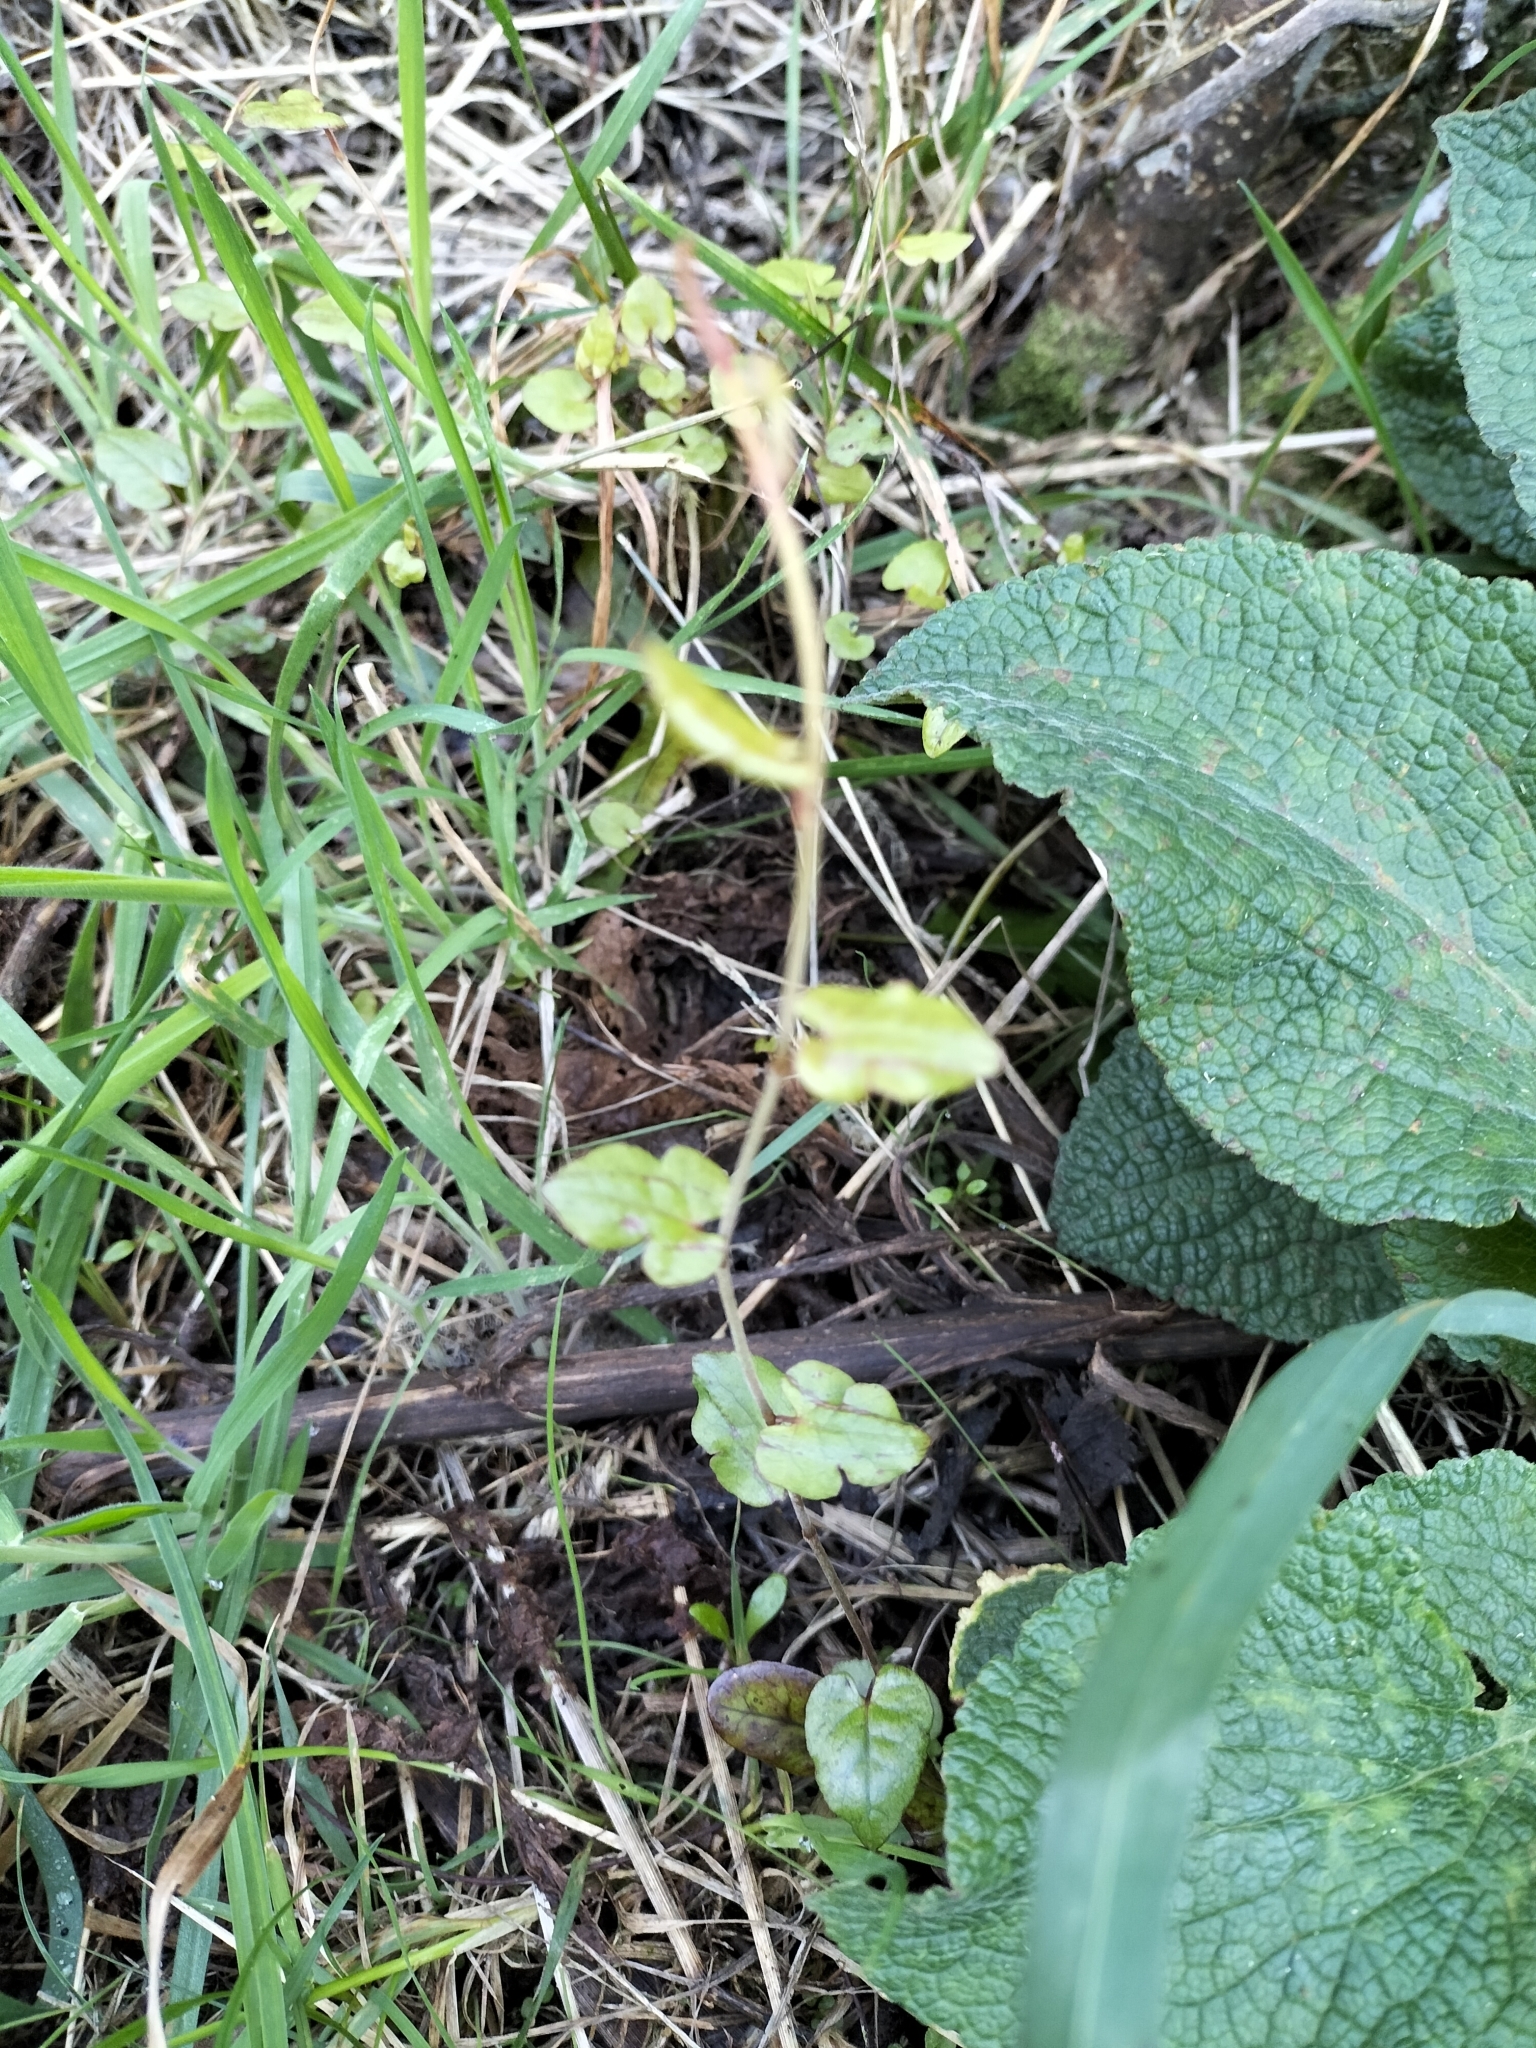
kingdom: Plantae
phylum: Tracheophyta
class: Magnoliopsida
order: Caryophyllales
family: Polygonaceae
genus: Muehlenbeckia
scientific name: Muehlenbeckia australis
